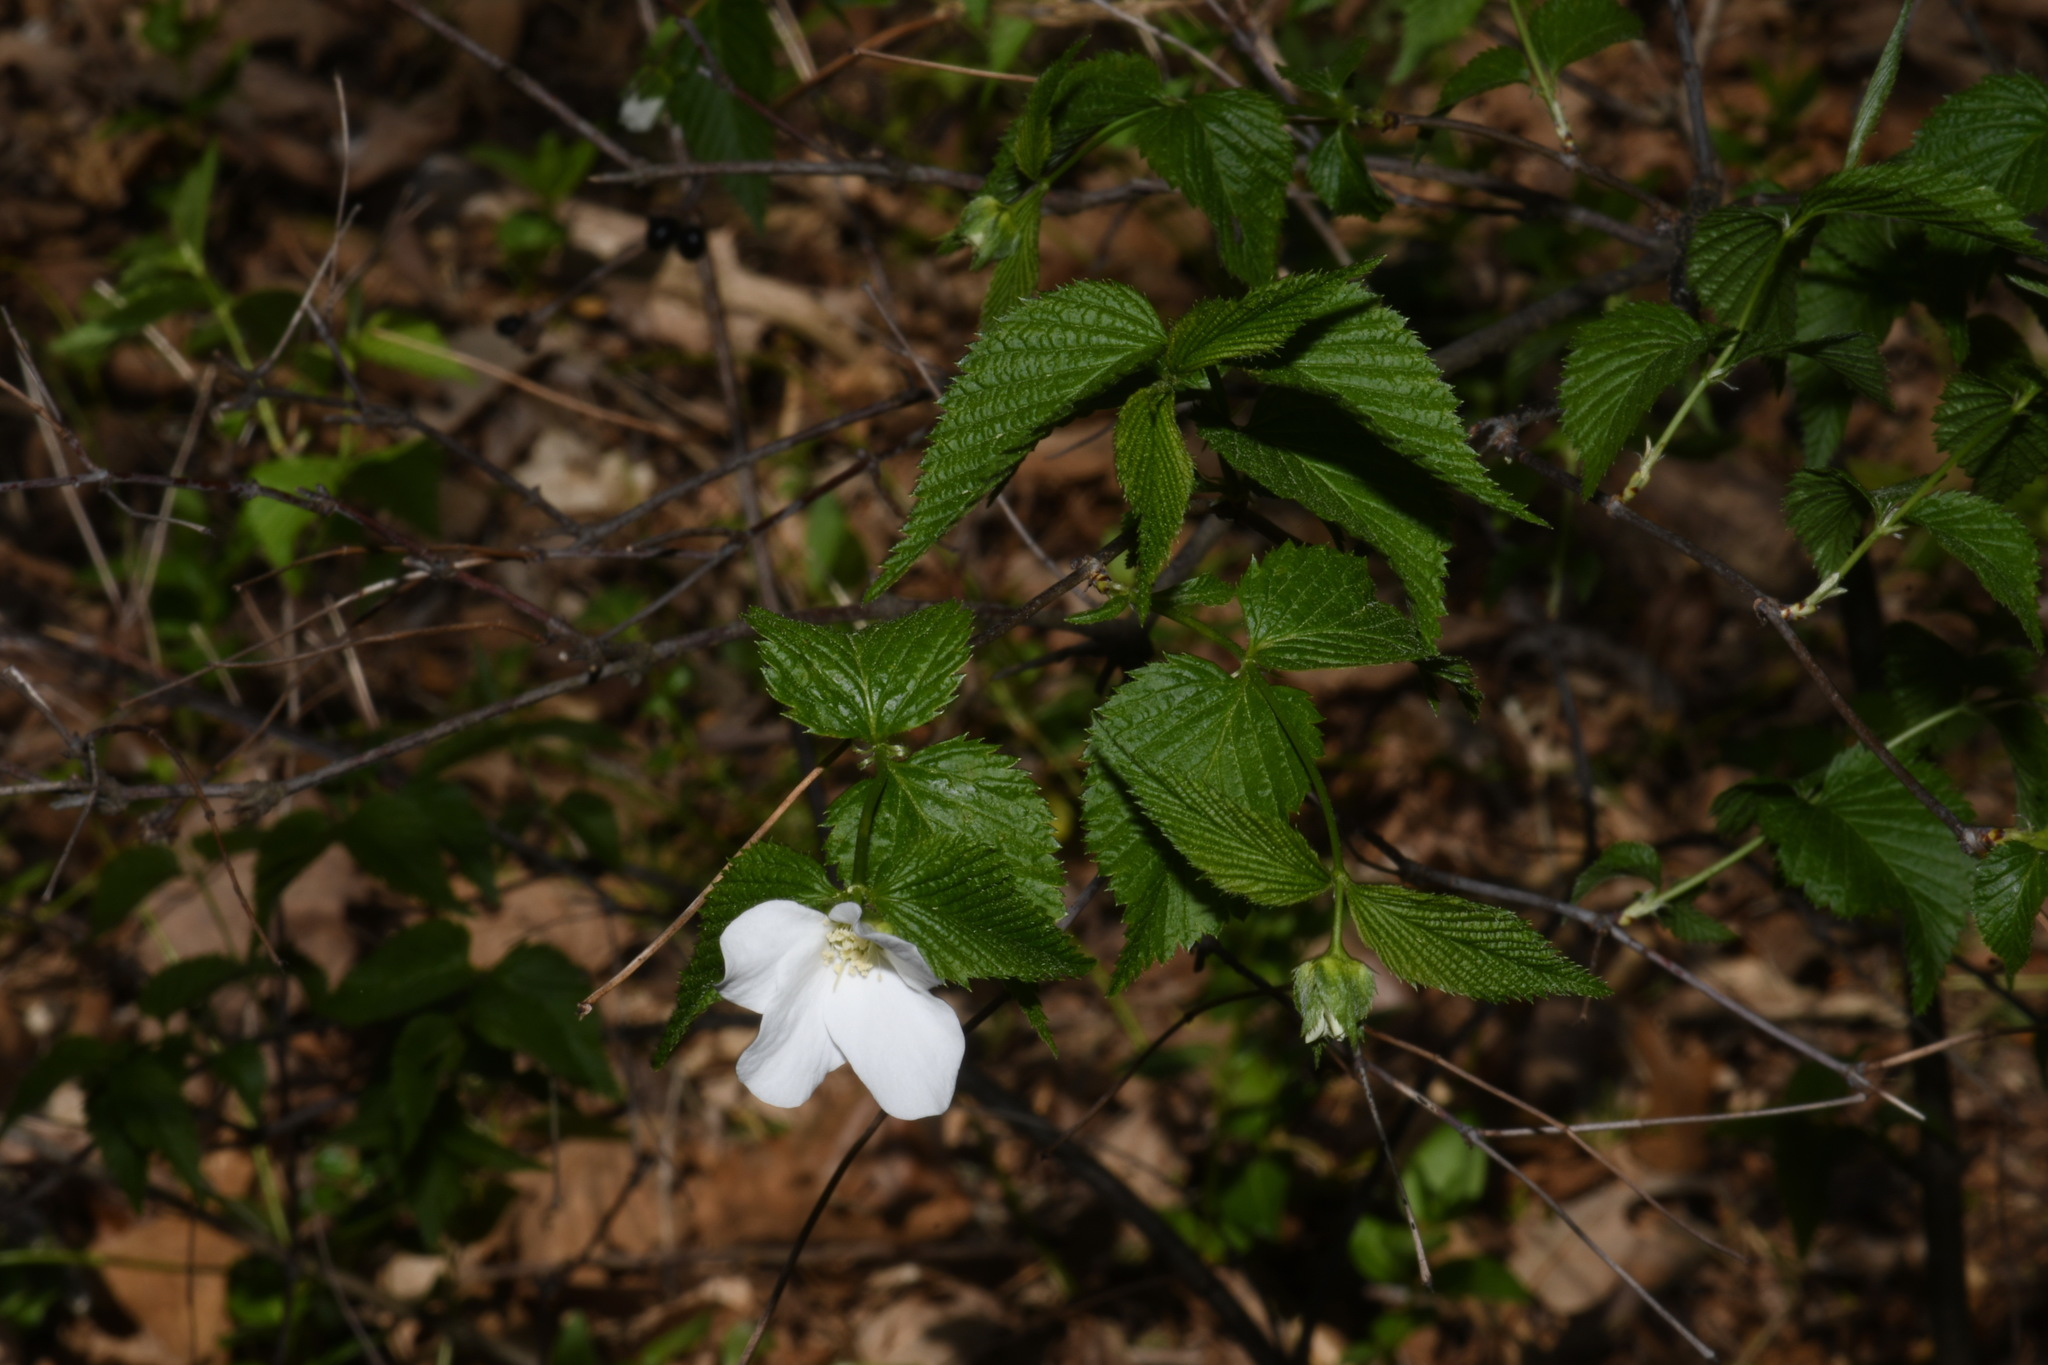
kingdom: Plantae
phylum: Tracheophyta
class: Magnoliopsida
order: Rosales
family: Rosaceae
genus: Rhodotypos
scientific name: Rhodotypos scandens
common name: Jetbead
